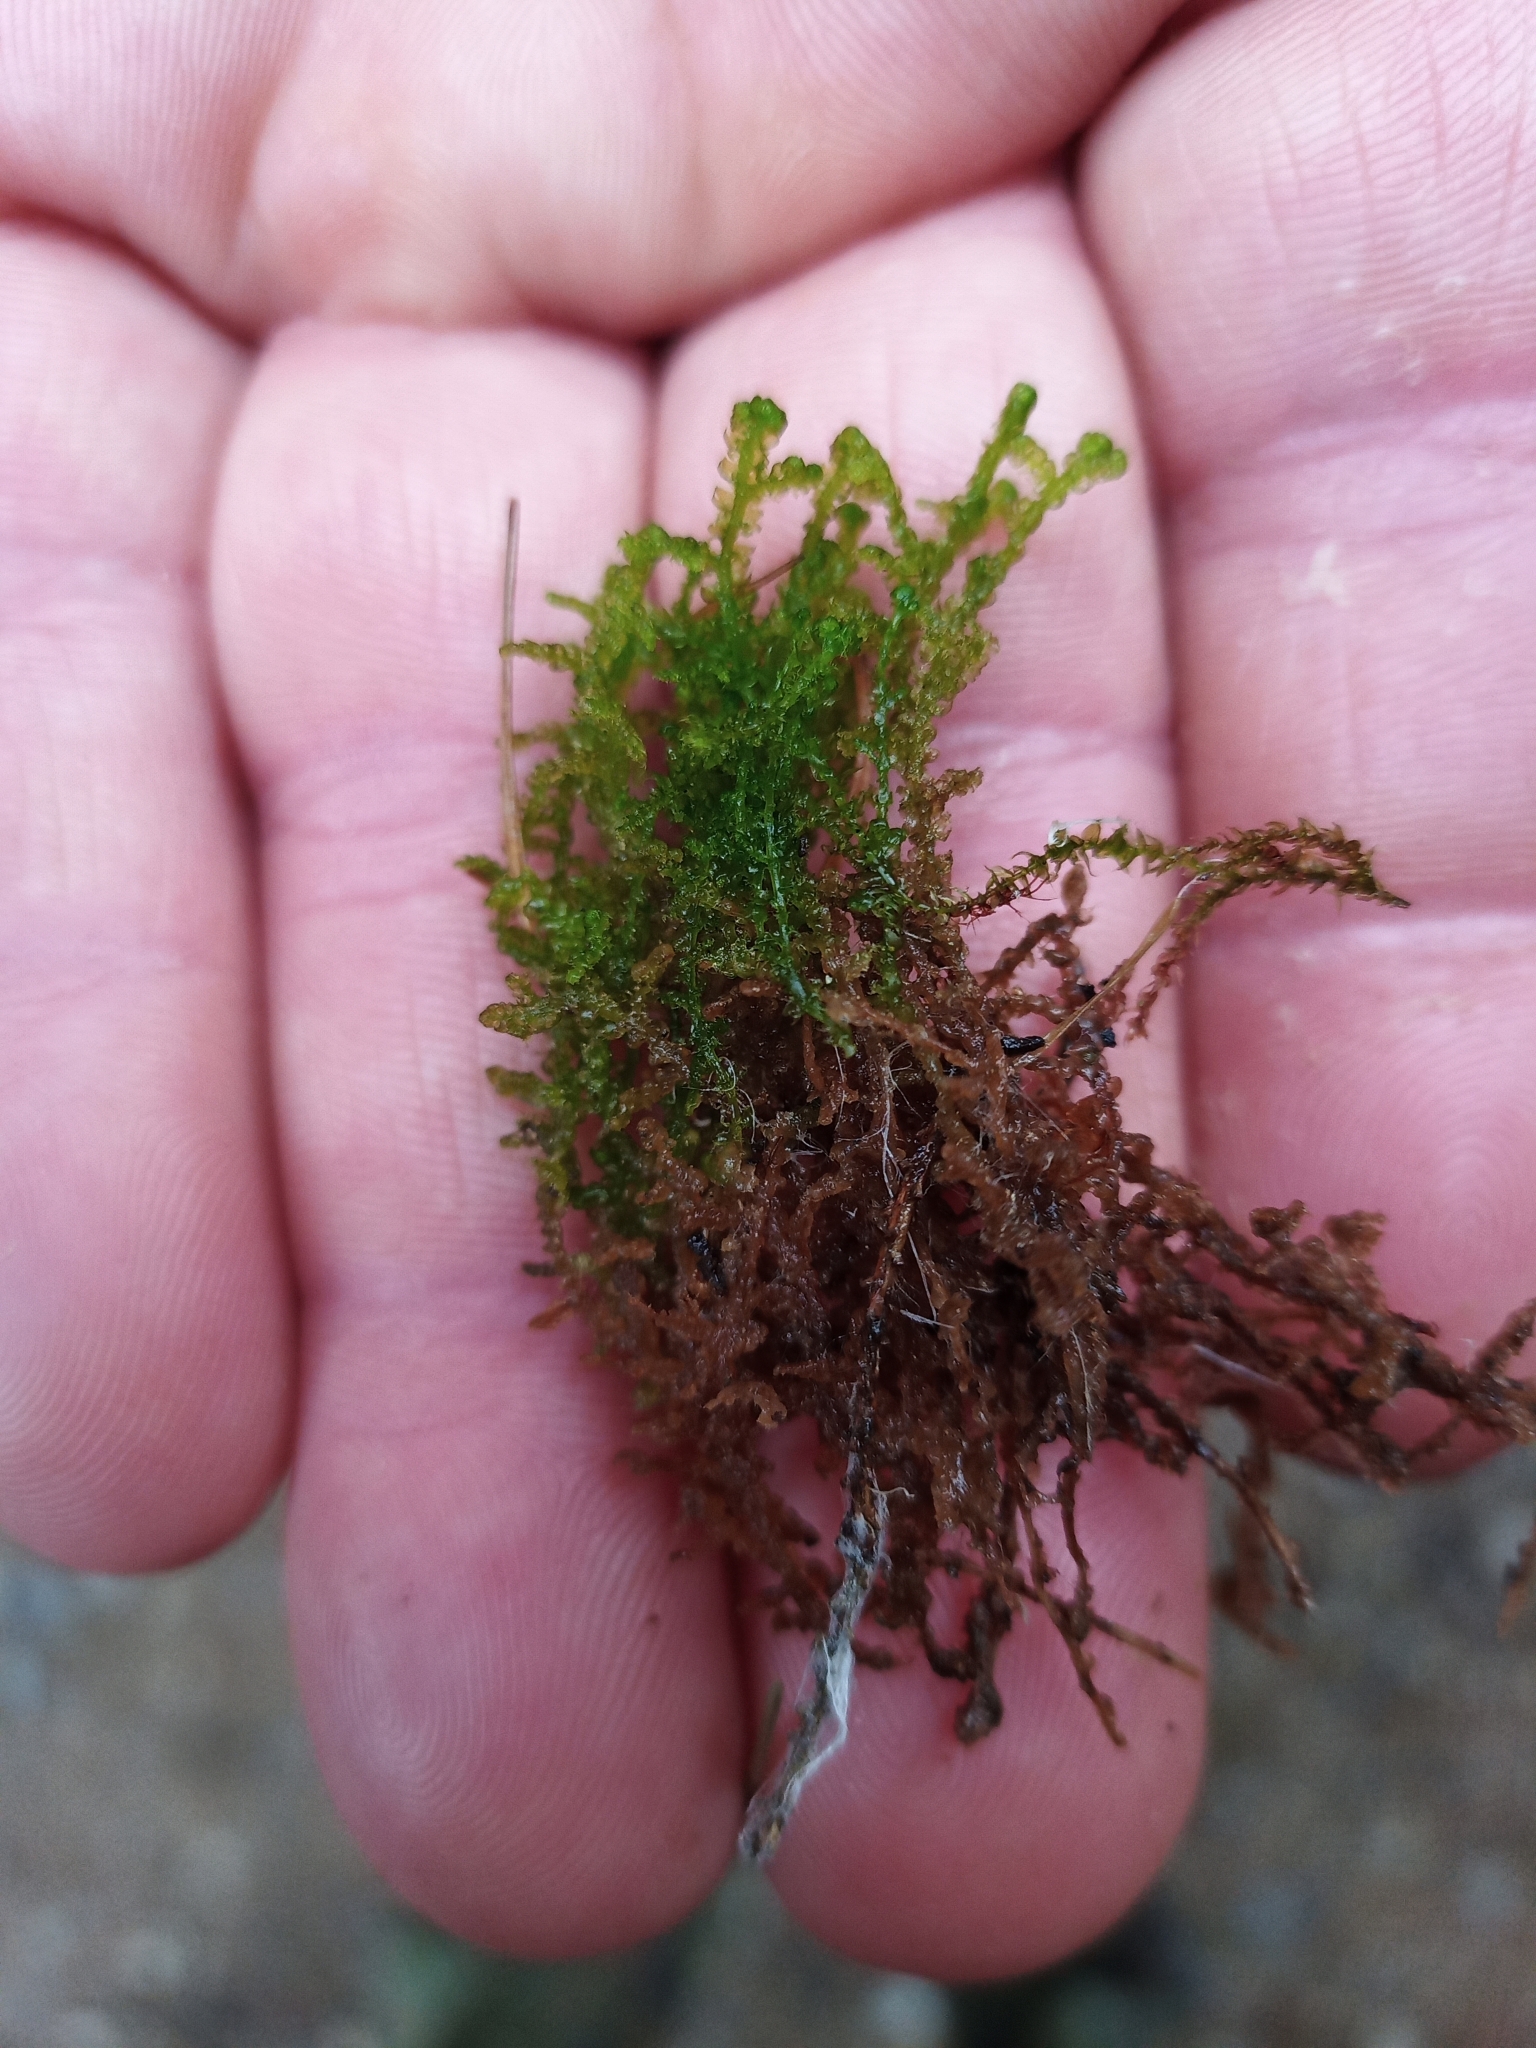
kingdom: Plantae
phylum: Marchantiophyta
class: Jungermanniopsida
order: Ptilidiales
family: Ptilidiaceae
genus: Ptilidium
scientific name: Ptilidium ciliare
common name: Ciliate fringewort
